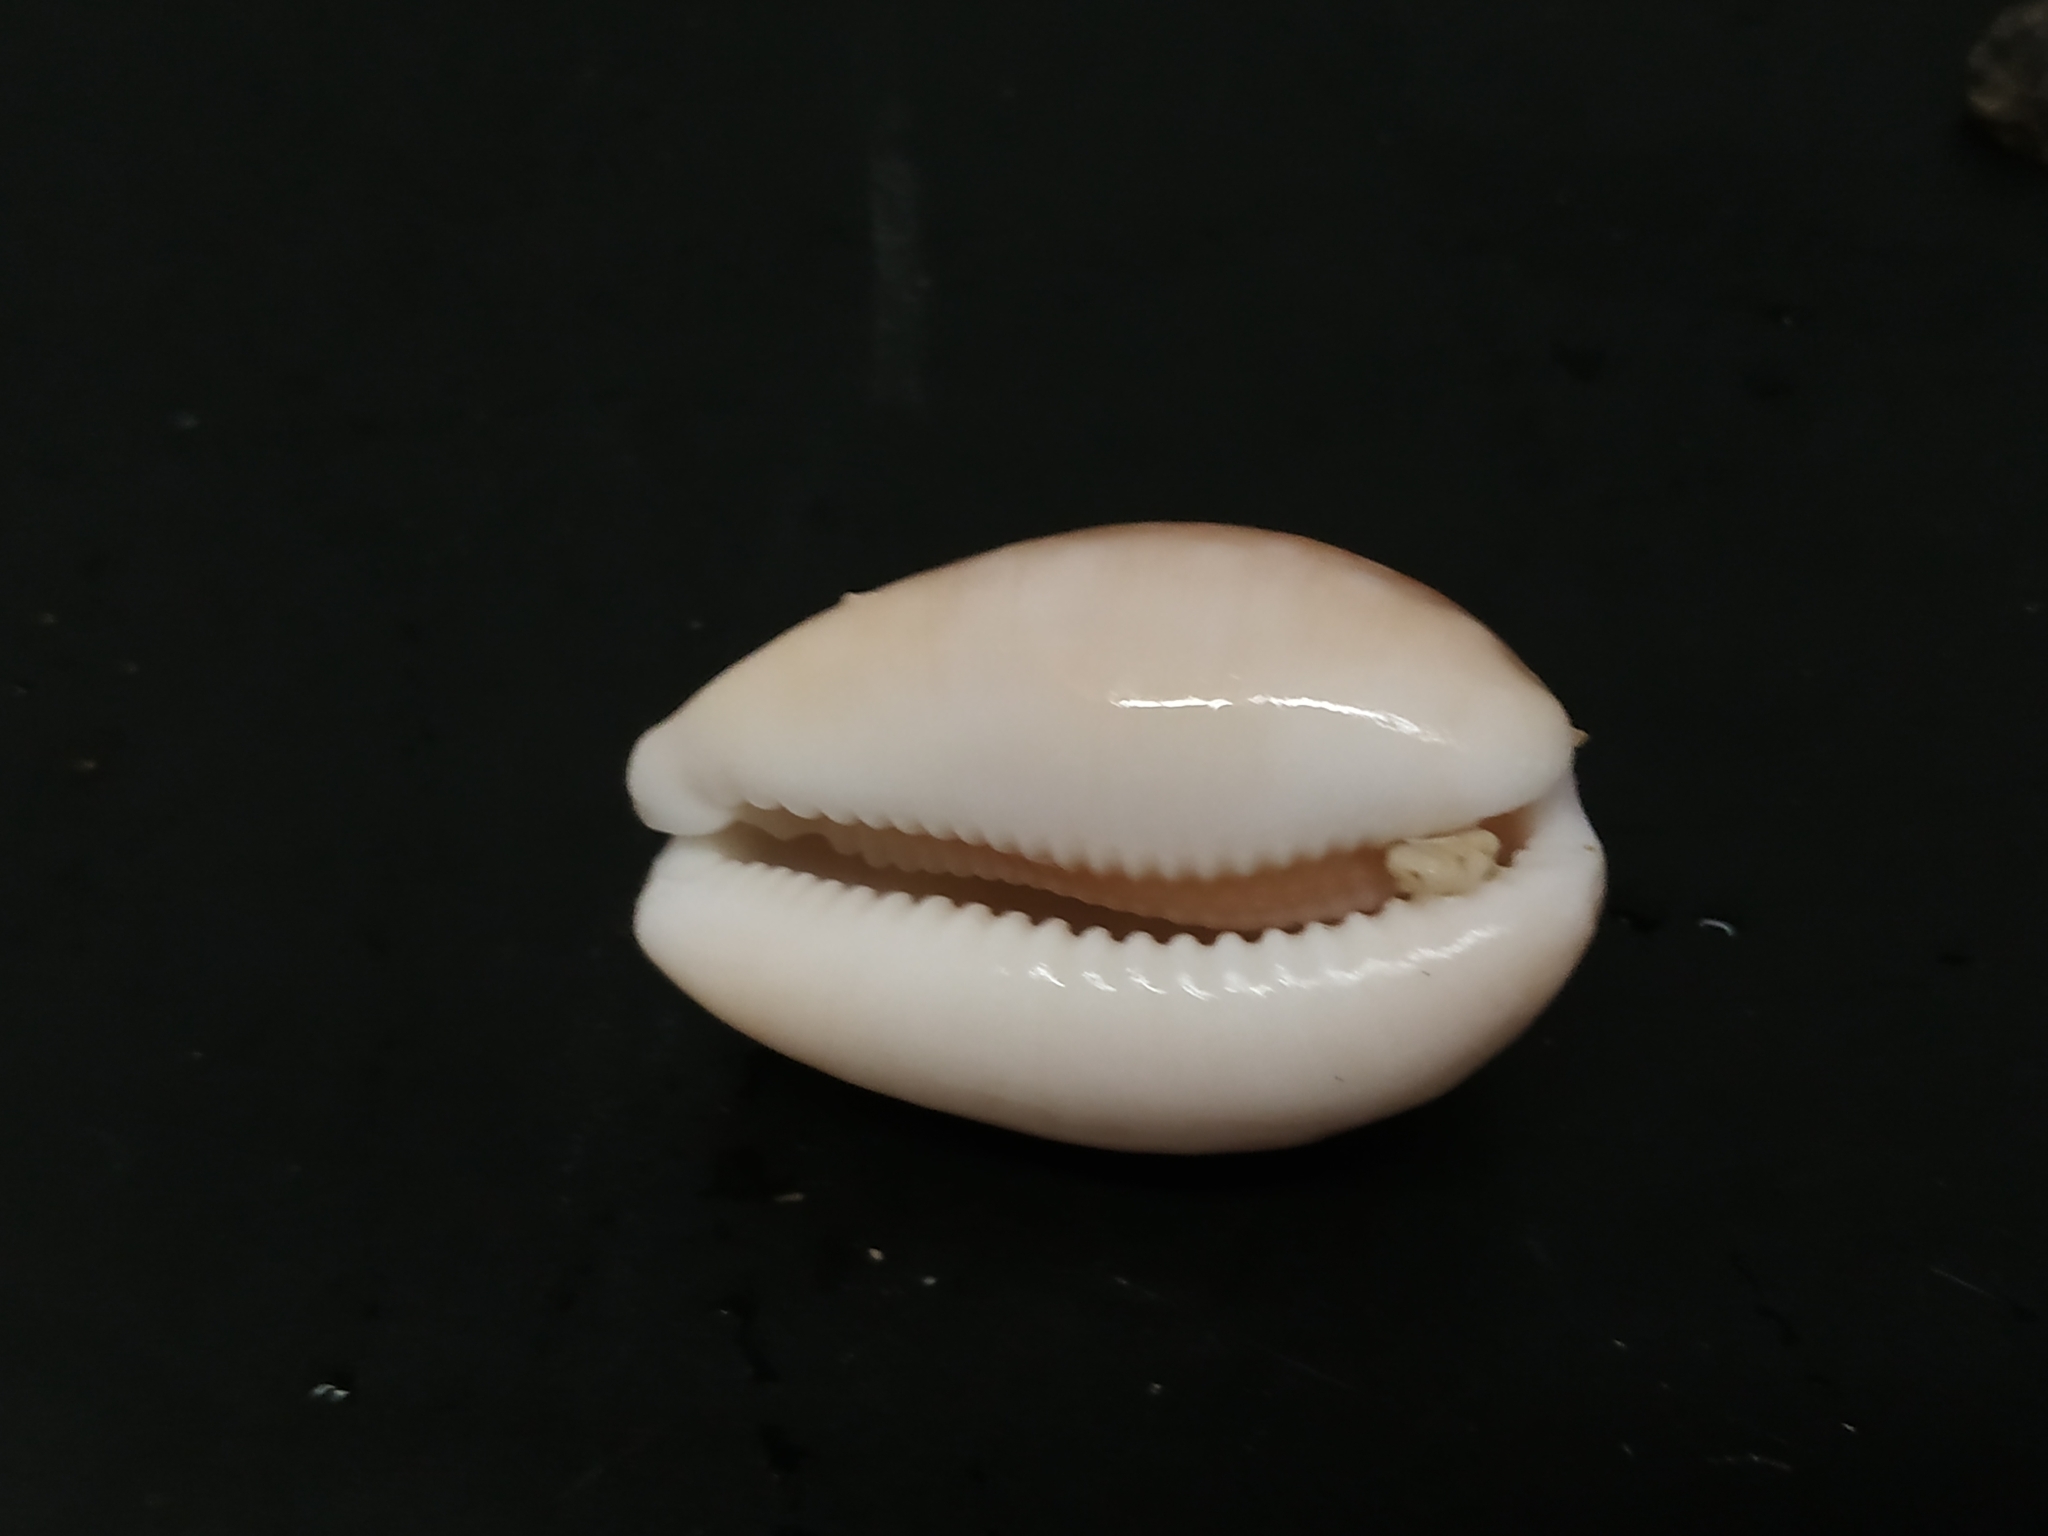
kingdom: Animalia
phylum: Mollusca
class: Gastropoda
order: Littorinimorpha
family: Cypraeidae
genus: Lyncina
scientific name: Lyncina vitellus
